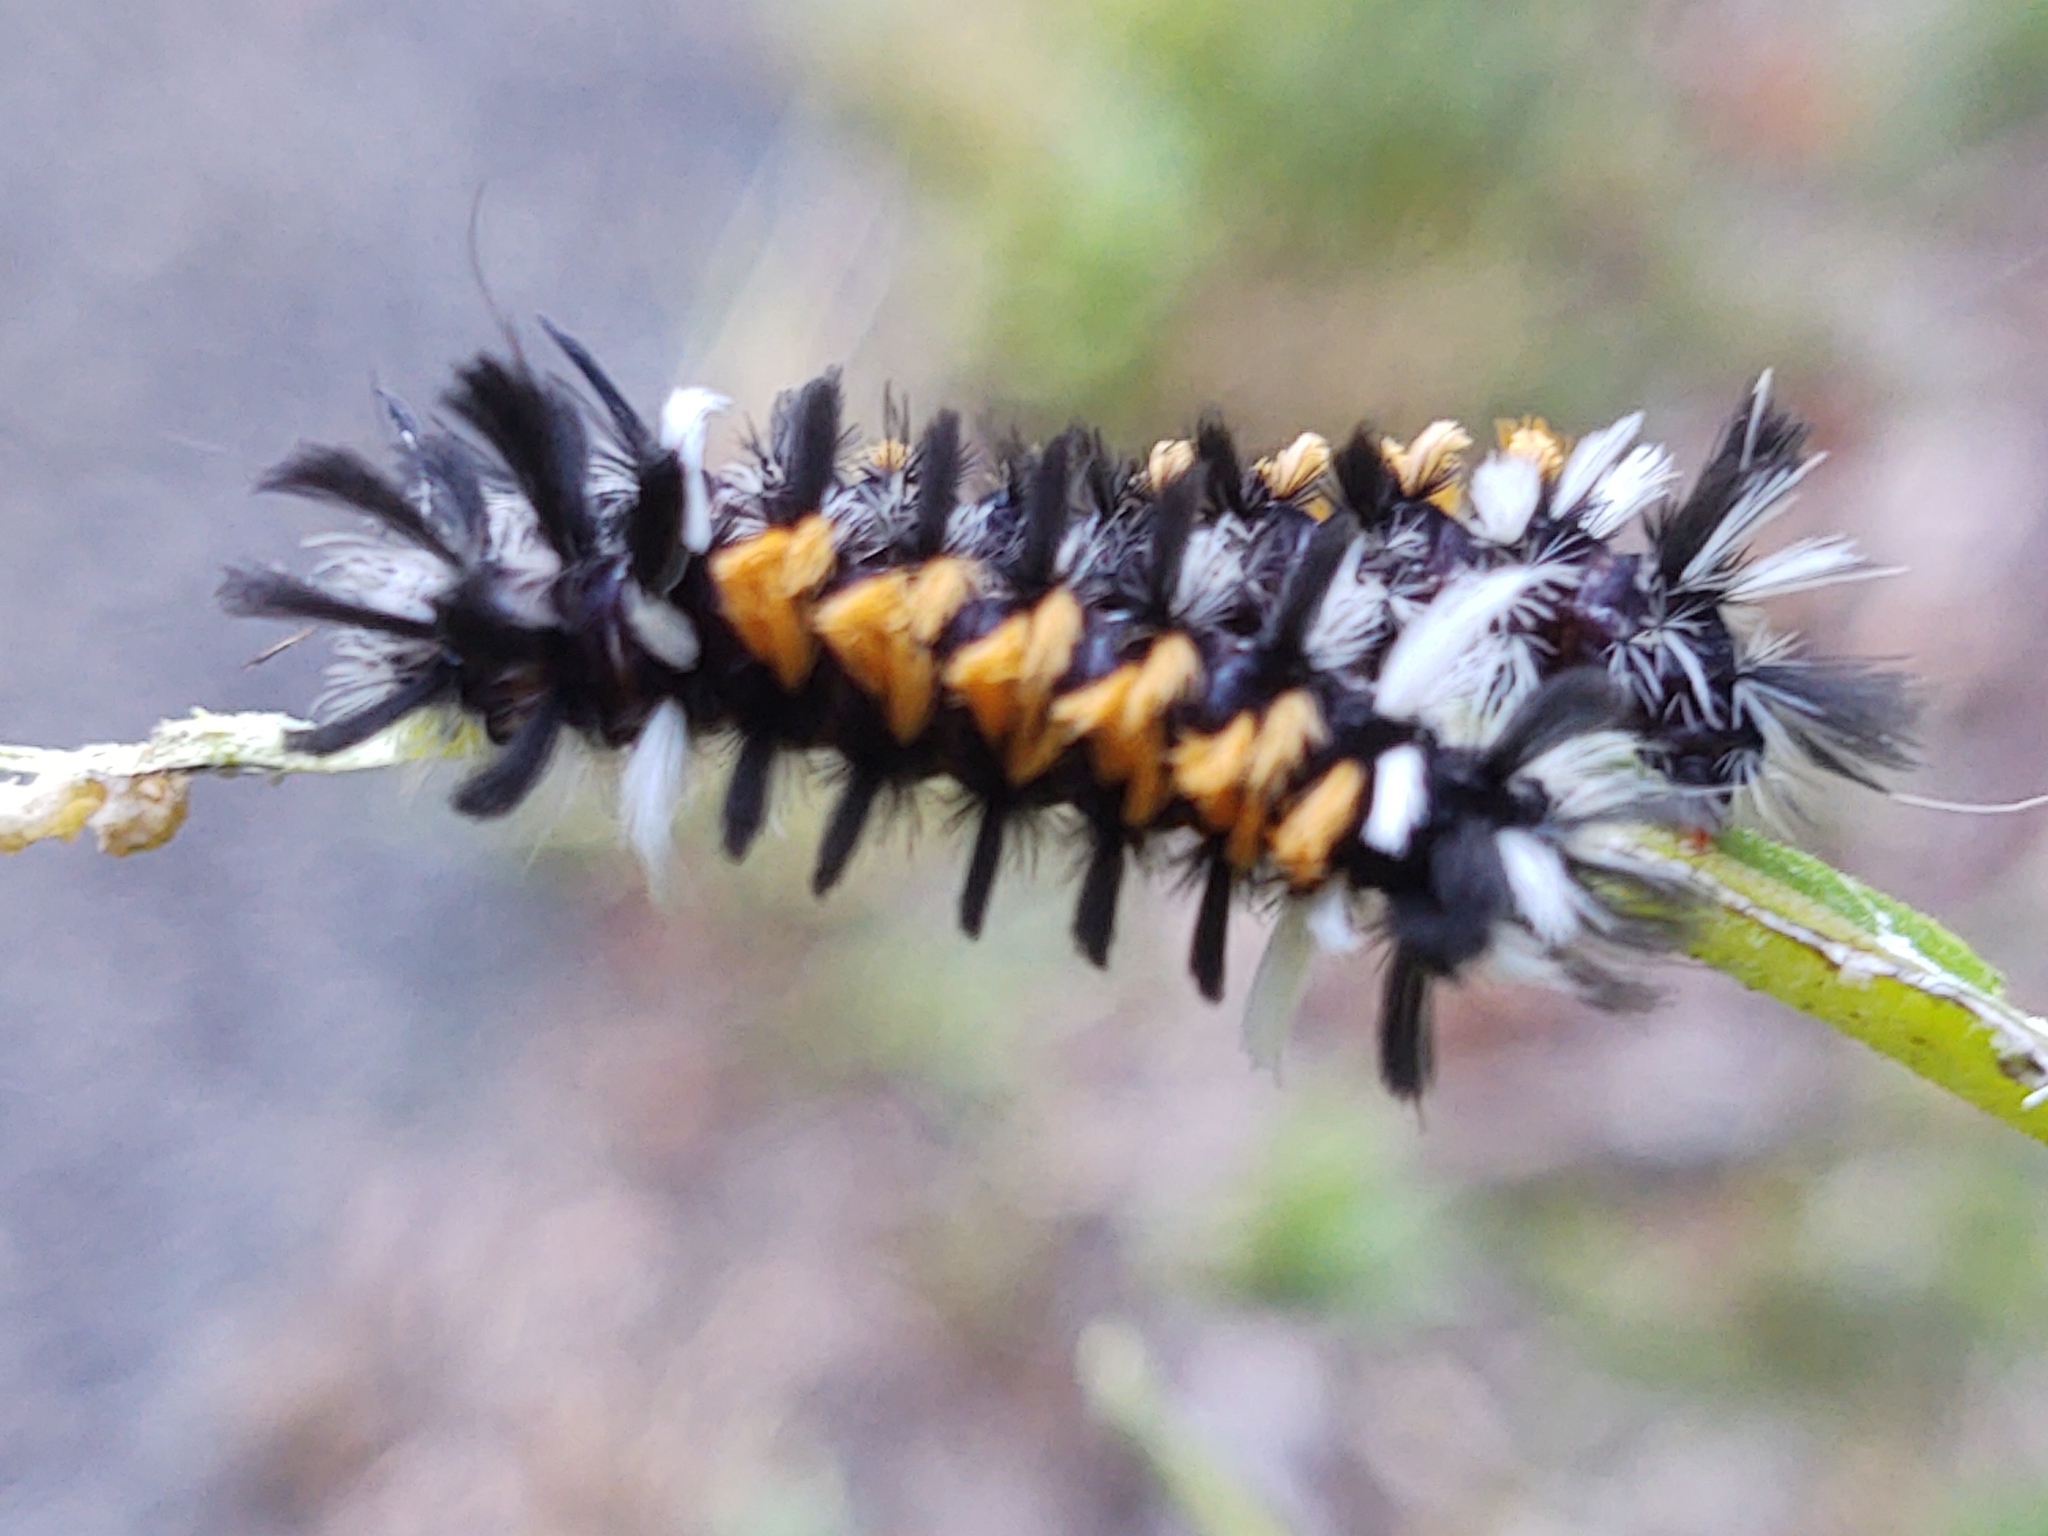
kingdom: Animalia
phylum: Arthropoda
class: Insecta
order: Lepidoptera
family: Erebidae
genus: Euchaetes
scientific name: Euchaetes egle
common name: Milkweed tussock moth
